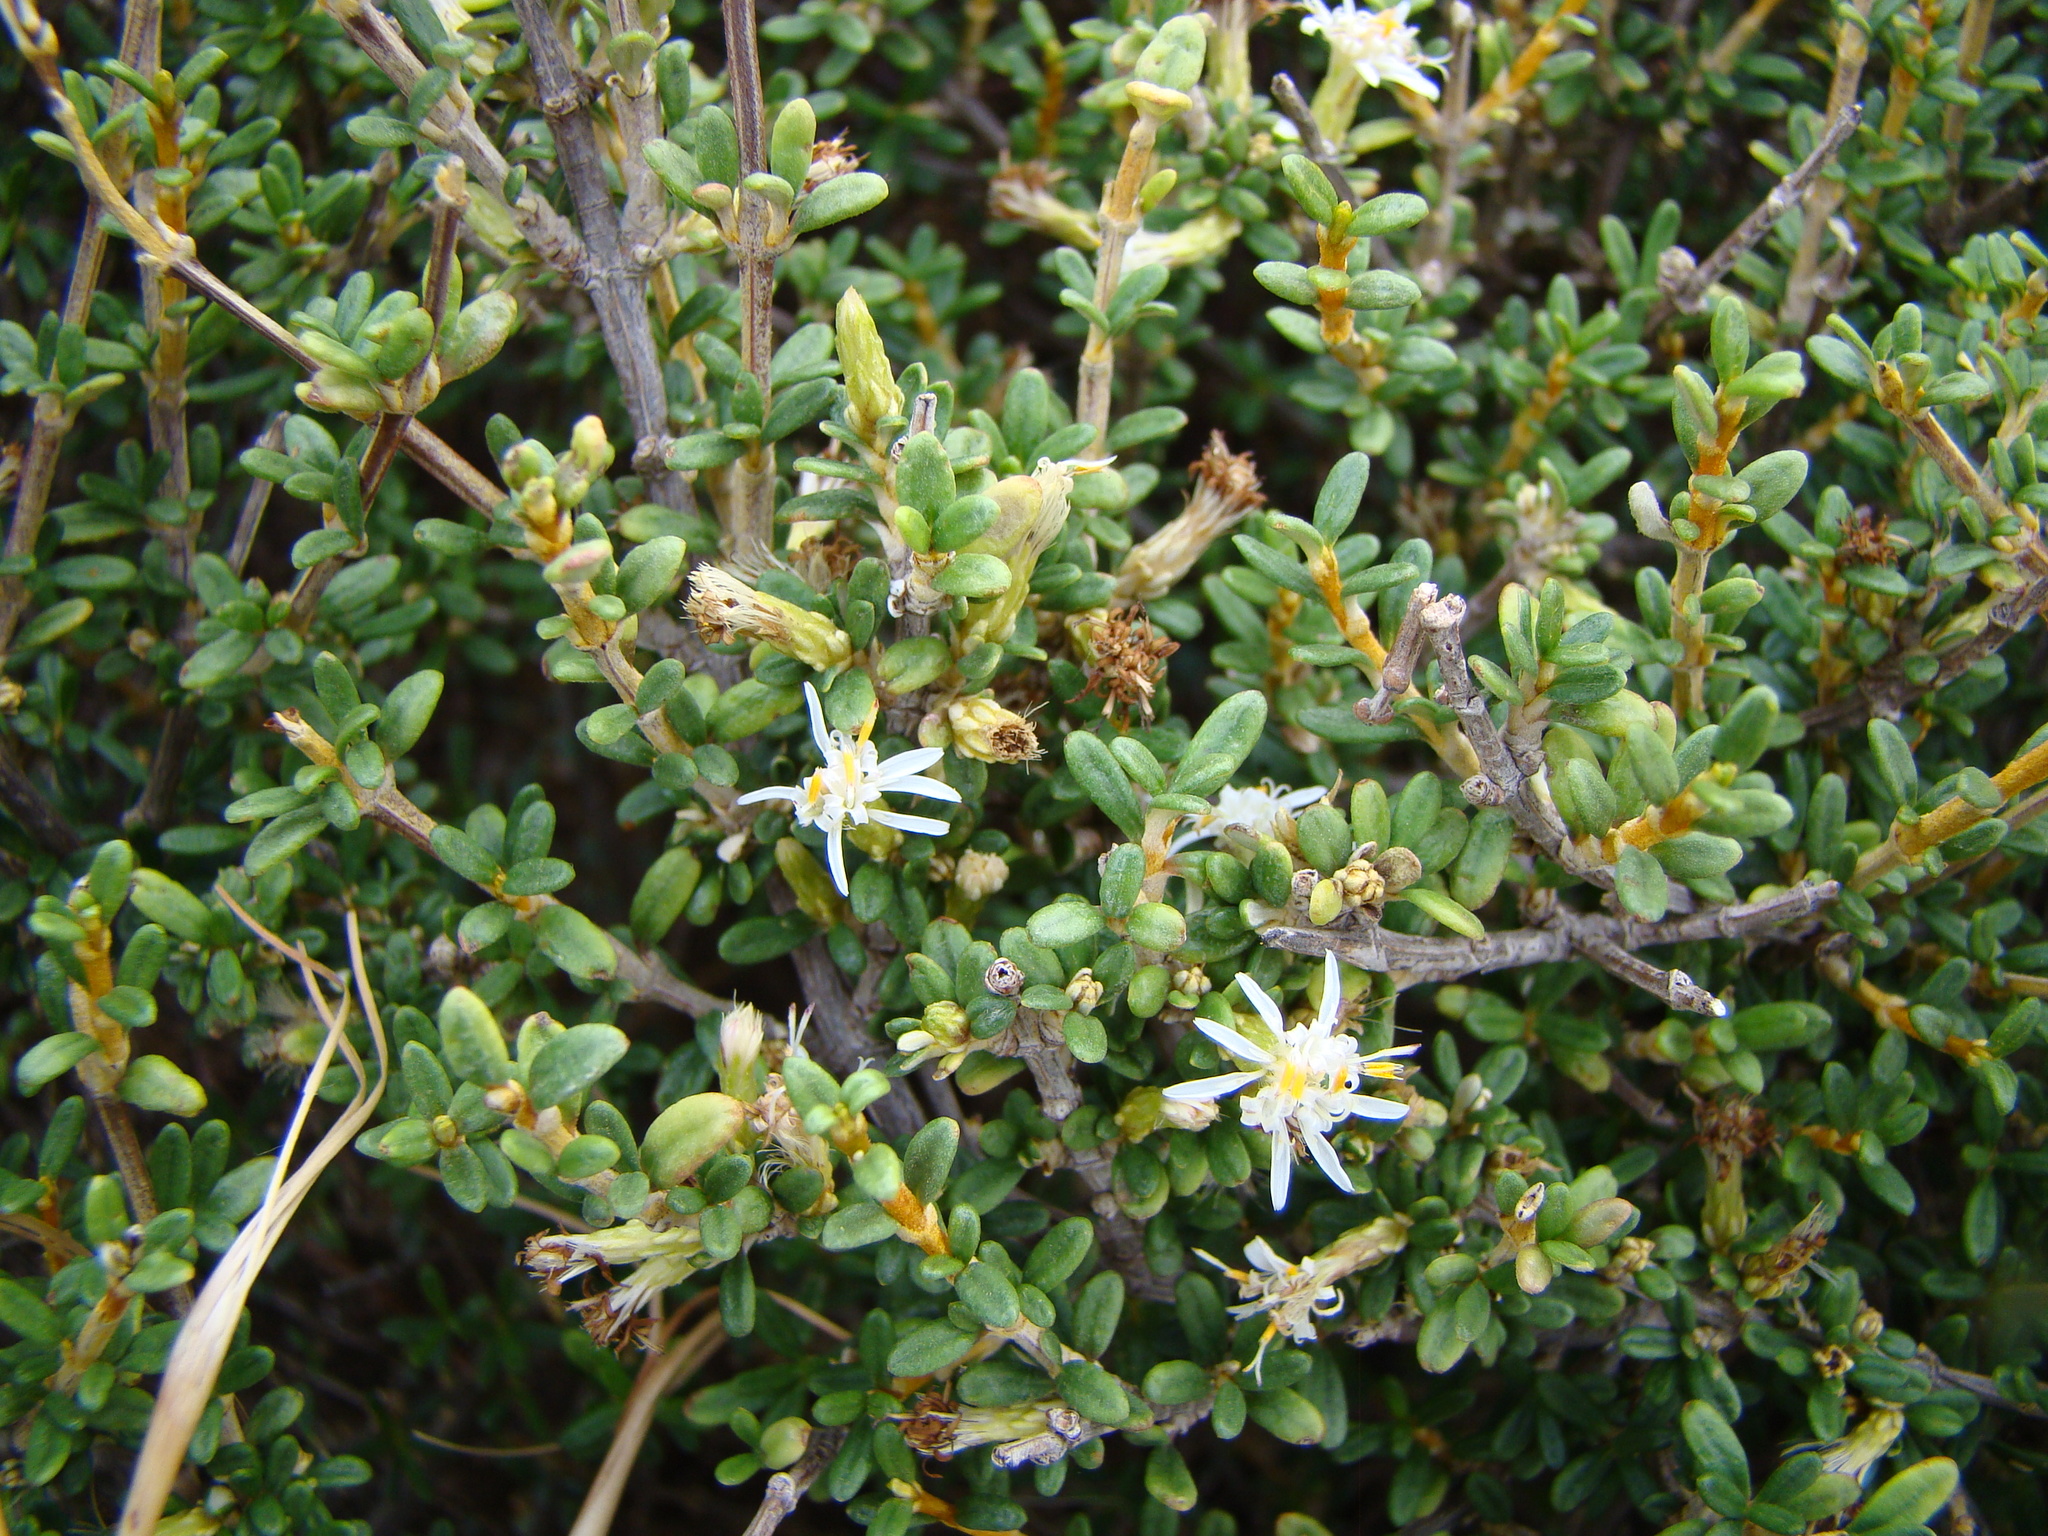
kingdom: Plantae
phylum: Tracheophyta
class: Magnoliopsida
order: Asterales
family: Asteraceae
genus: Olearia
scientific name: Olearia solandri
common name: Coastal daisybush
